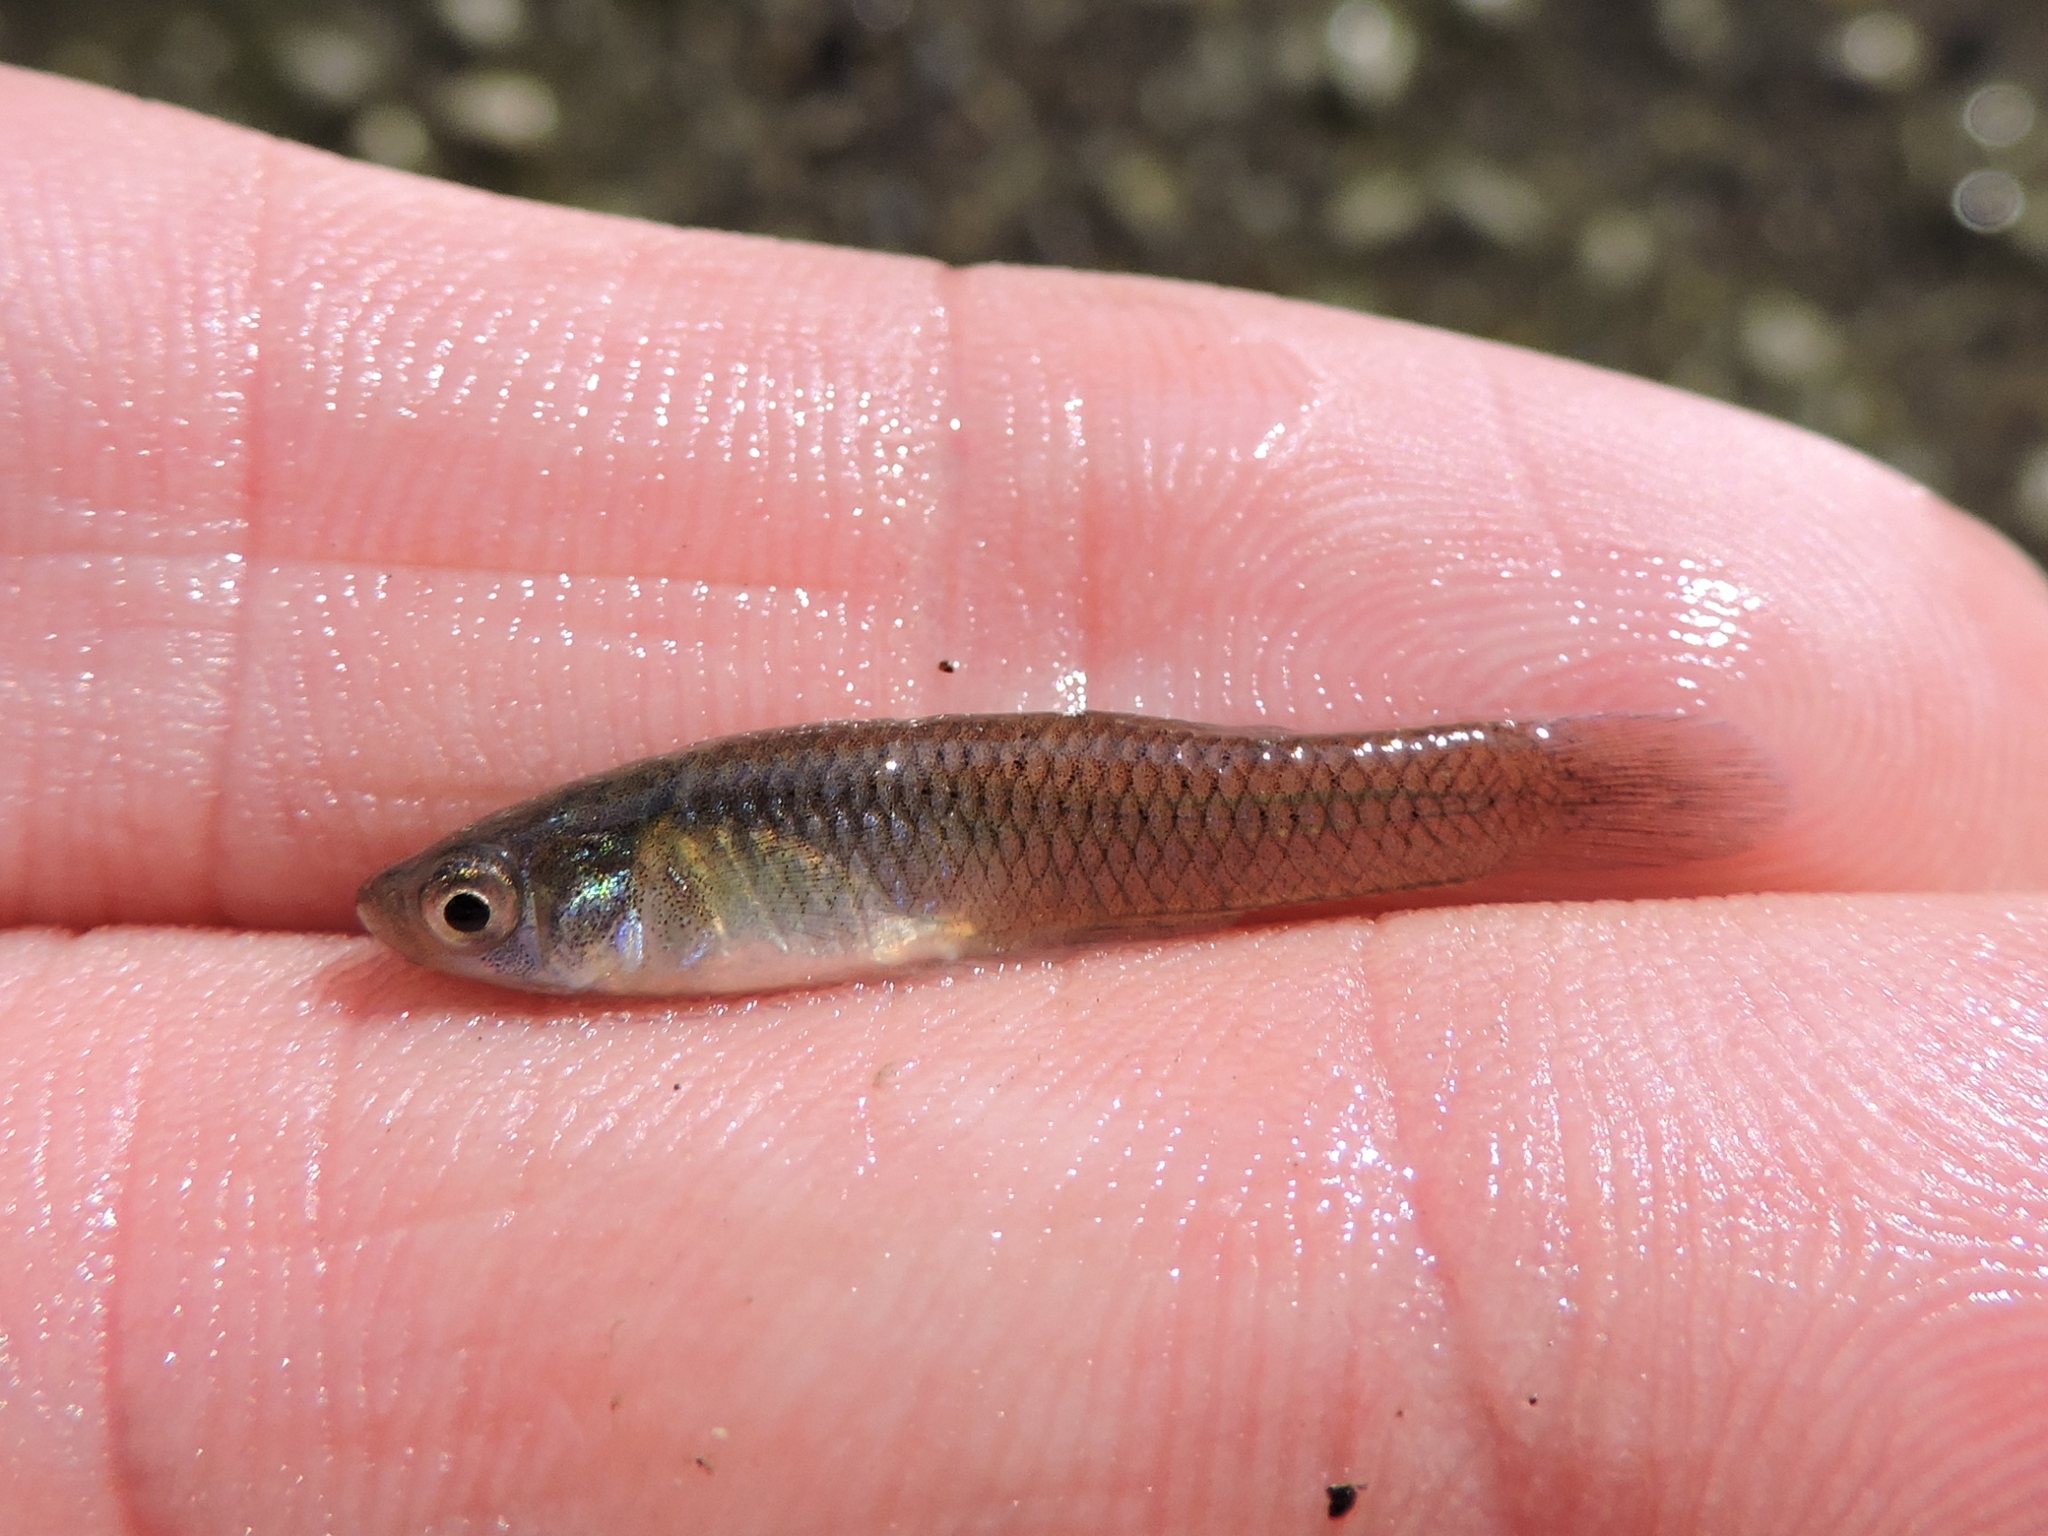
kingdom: Animalia
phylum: Chordata
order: Cyprinodontiformes
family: Poeciliidae
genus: Gambusia
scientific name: Gambusia affinis
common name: Mosquitofish
